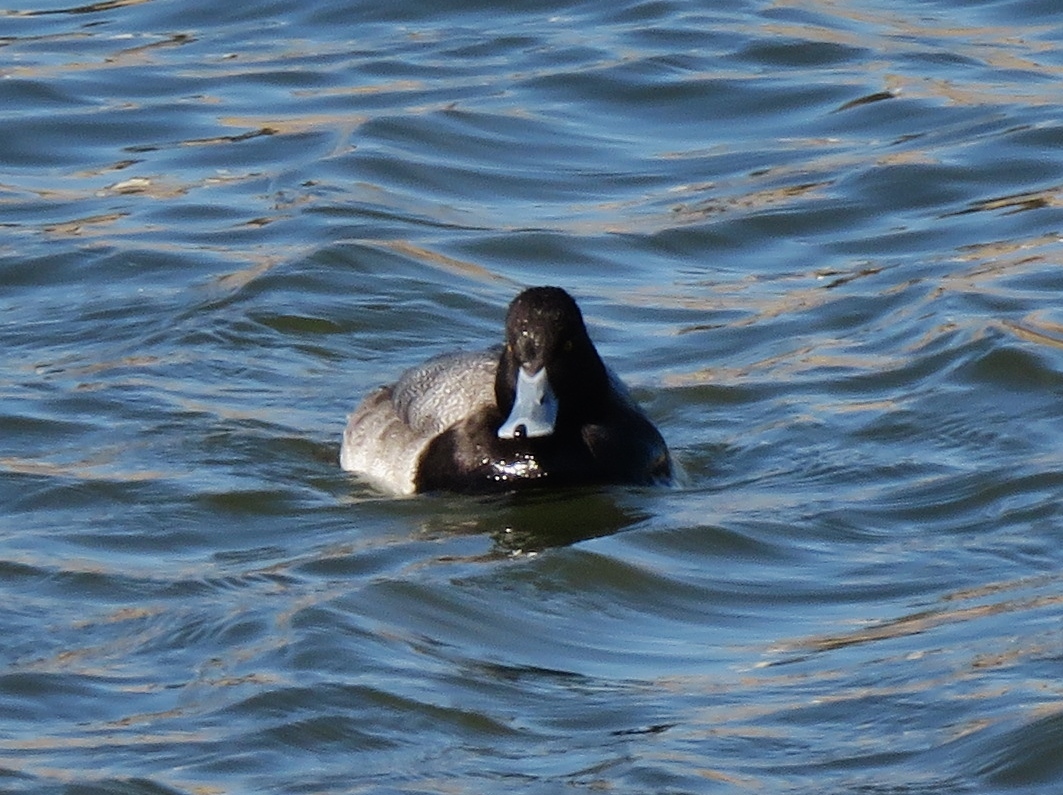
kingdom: Animalia
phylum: Chordata
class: Aves
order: Anseriformes
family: Anatidae
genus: Aythya
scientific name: Aythya affinis
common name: Lesser scaup
